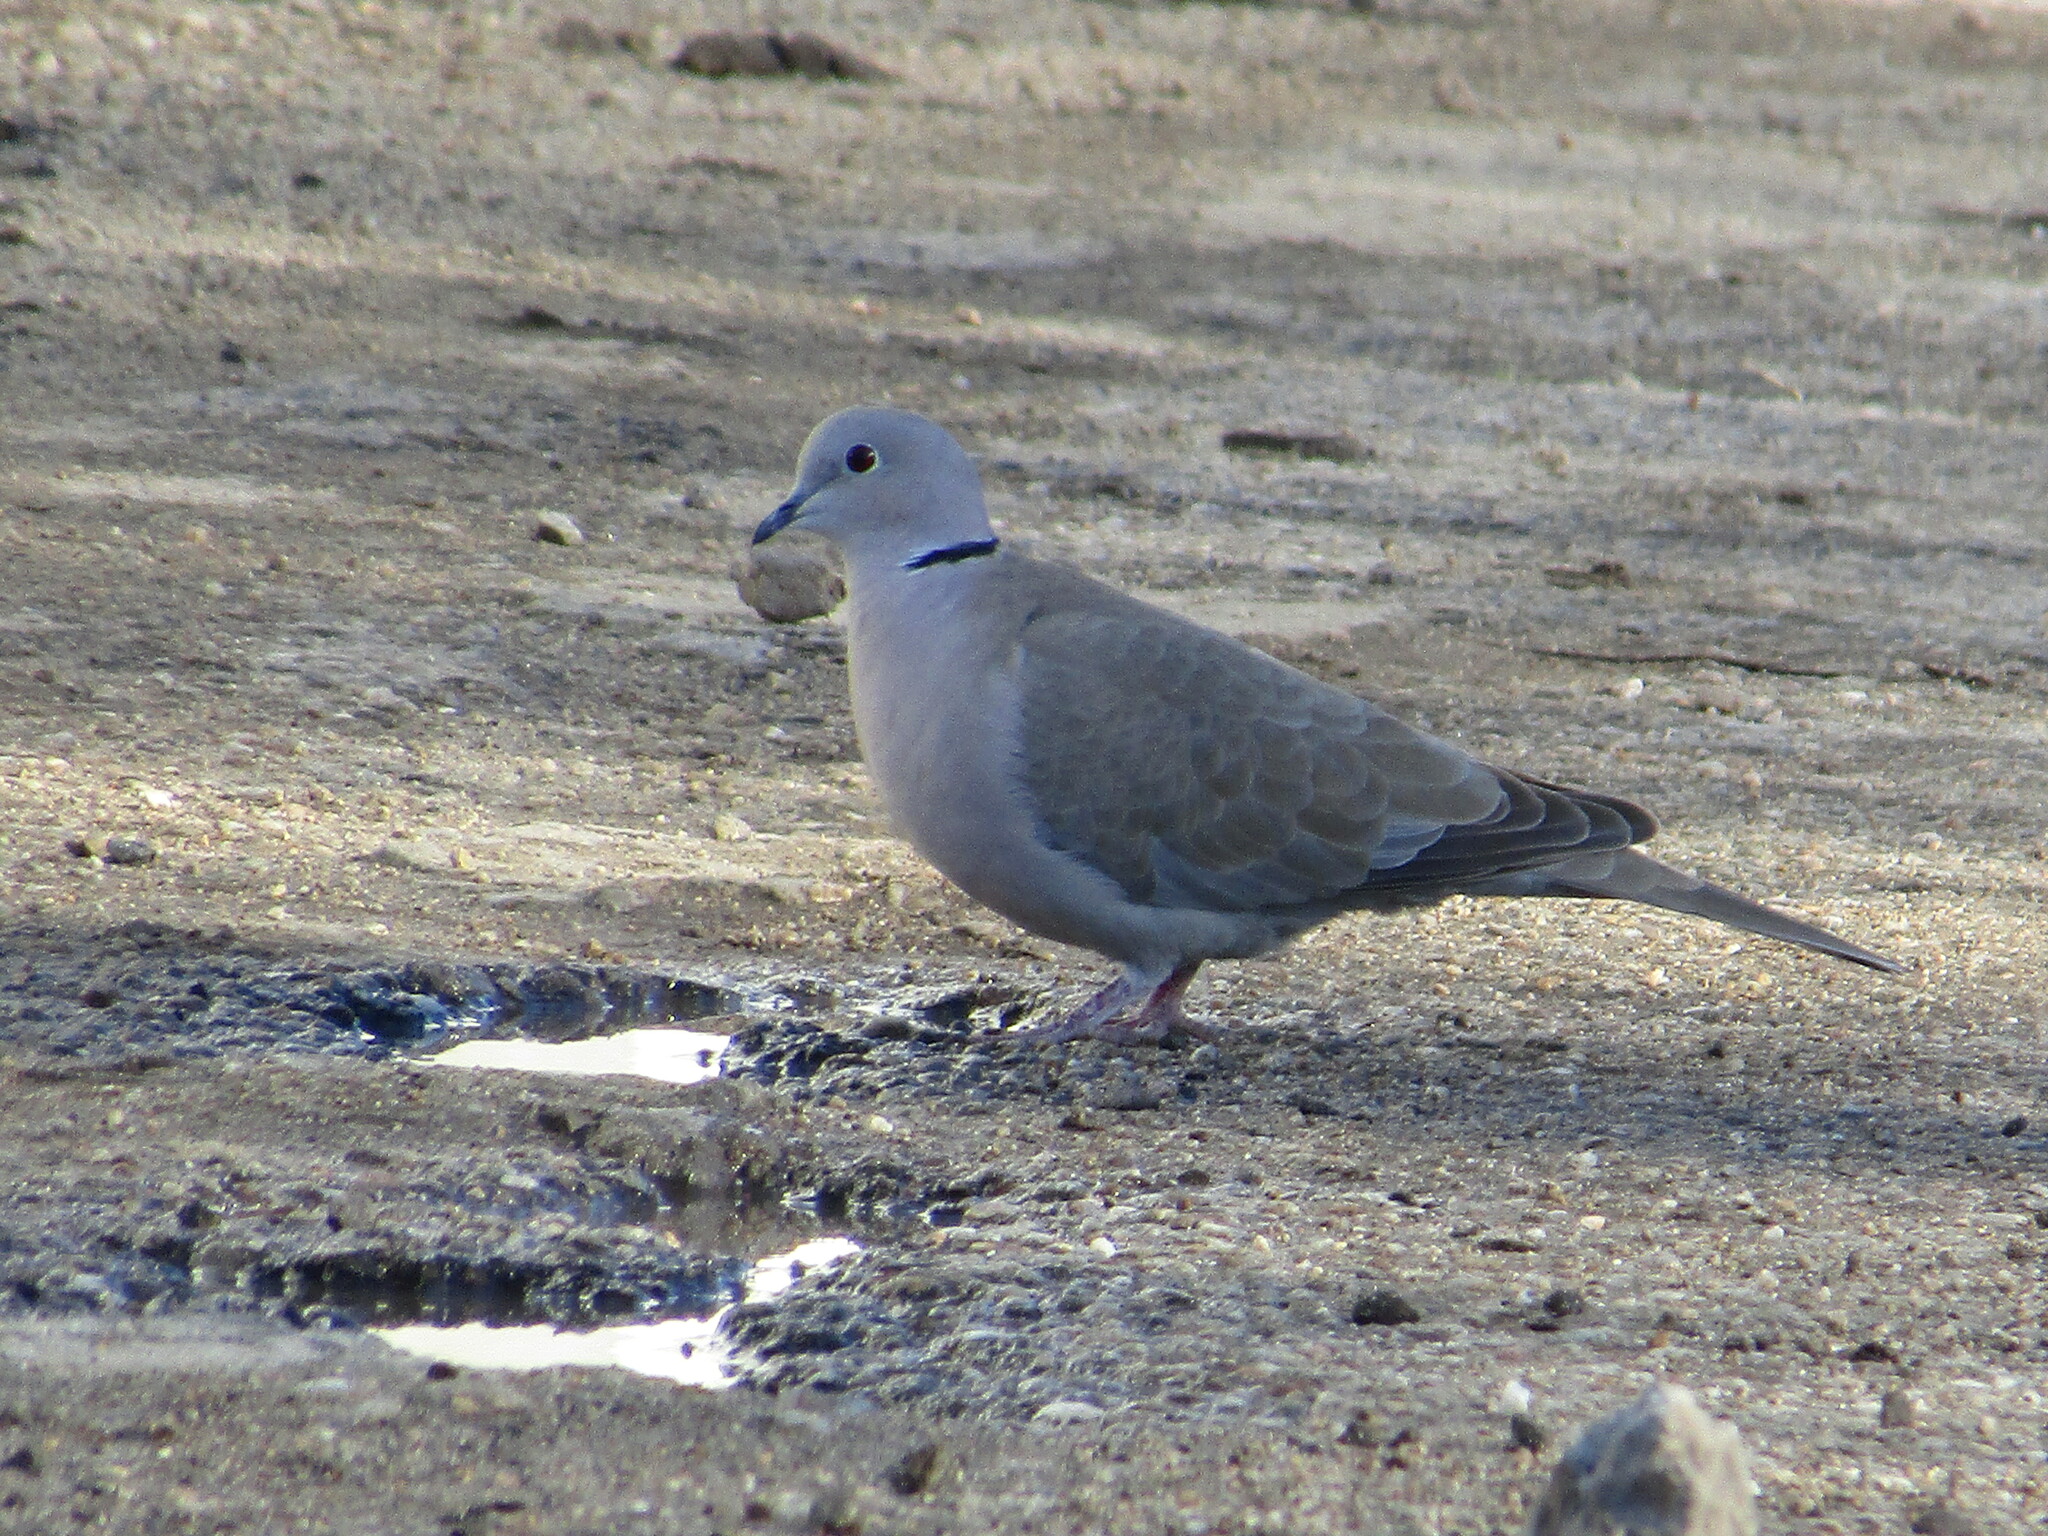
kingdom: Animalia
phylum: Chordata
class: Aves
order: Columbiformes
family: Columbidae
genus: Streptopelia
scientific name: Streptopelia decaocto
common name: Eurasian collared dove
